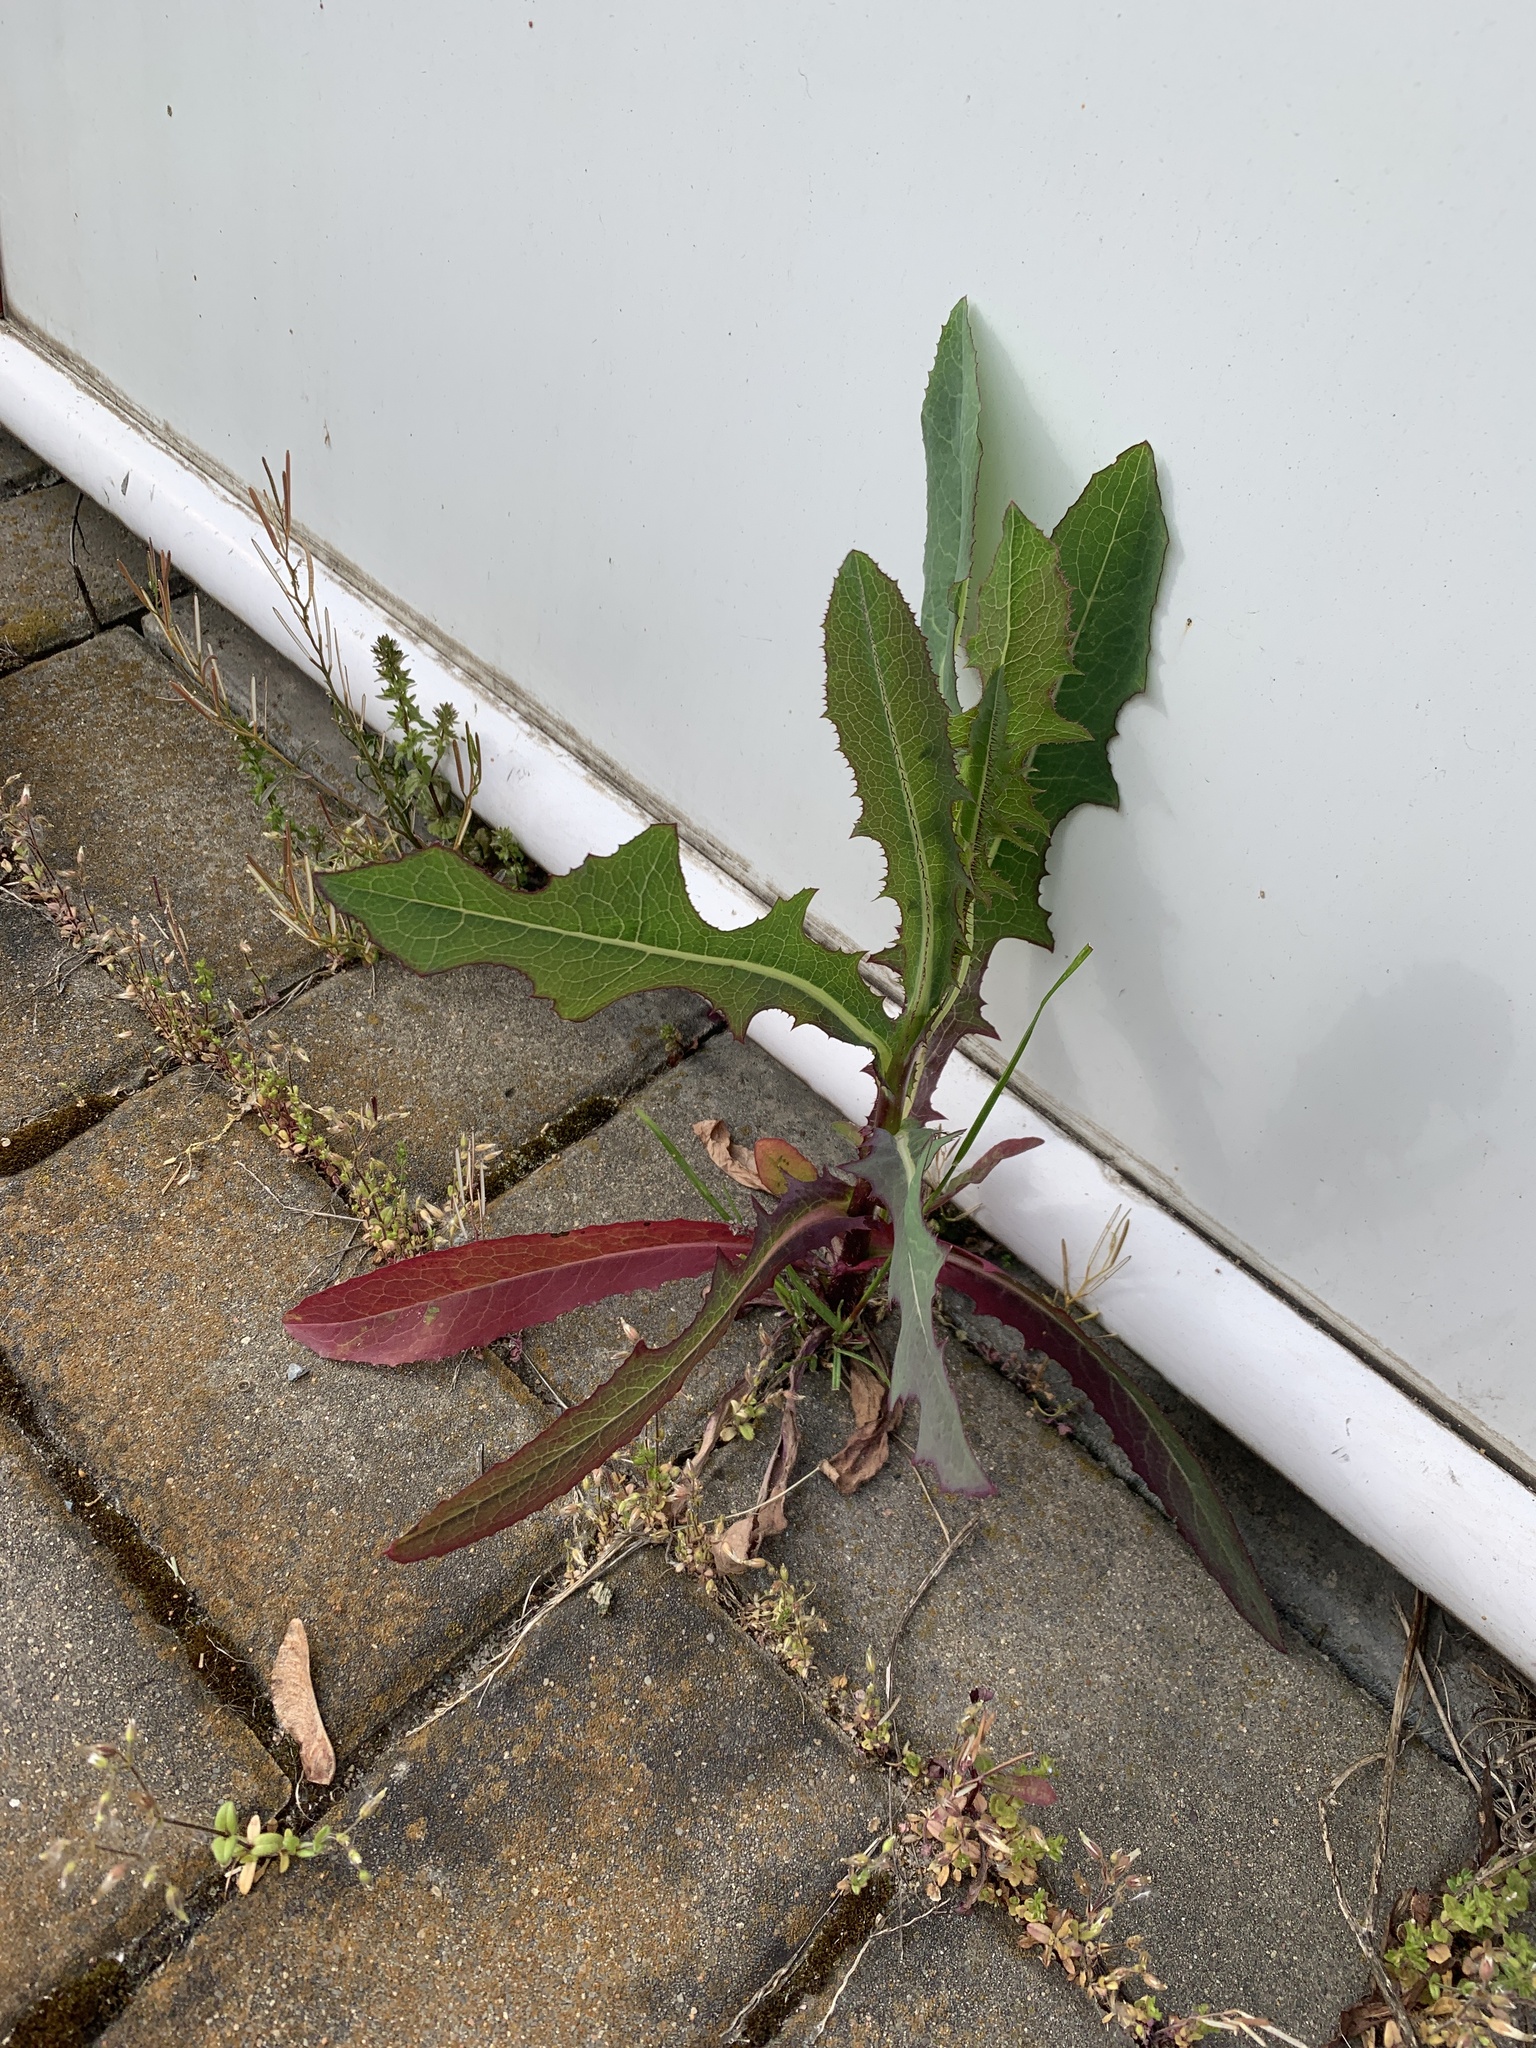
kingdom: Plantae
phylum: Tracheophyta
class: Magnoliopsida
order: Asterales
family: Asteraceae
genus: Lactuca
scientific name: Lactuca serriola
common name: Prickly lettuce
